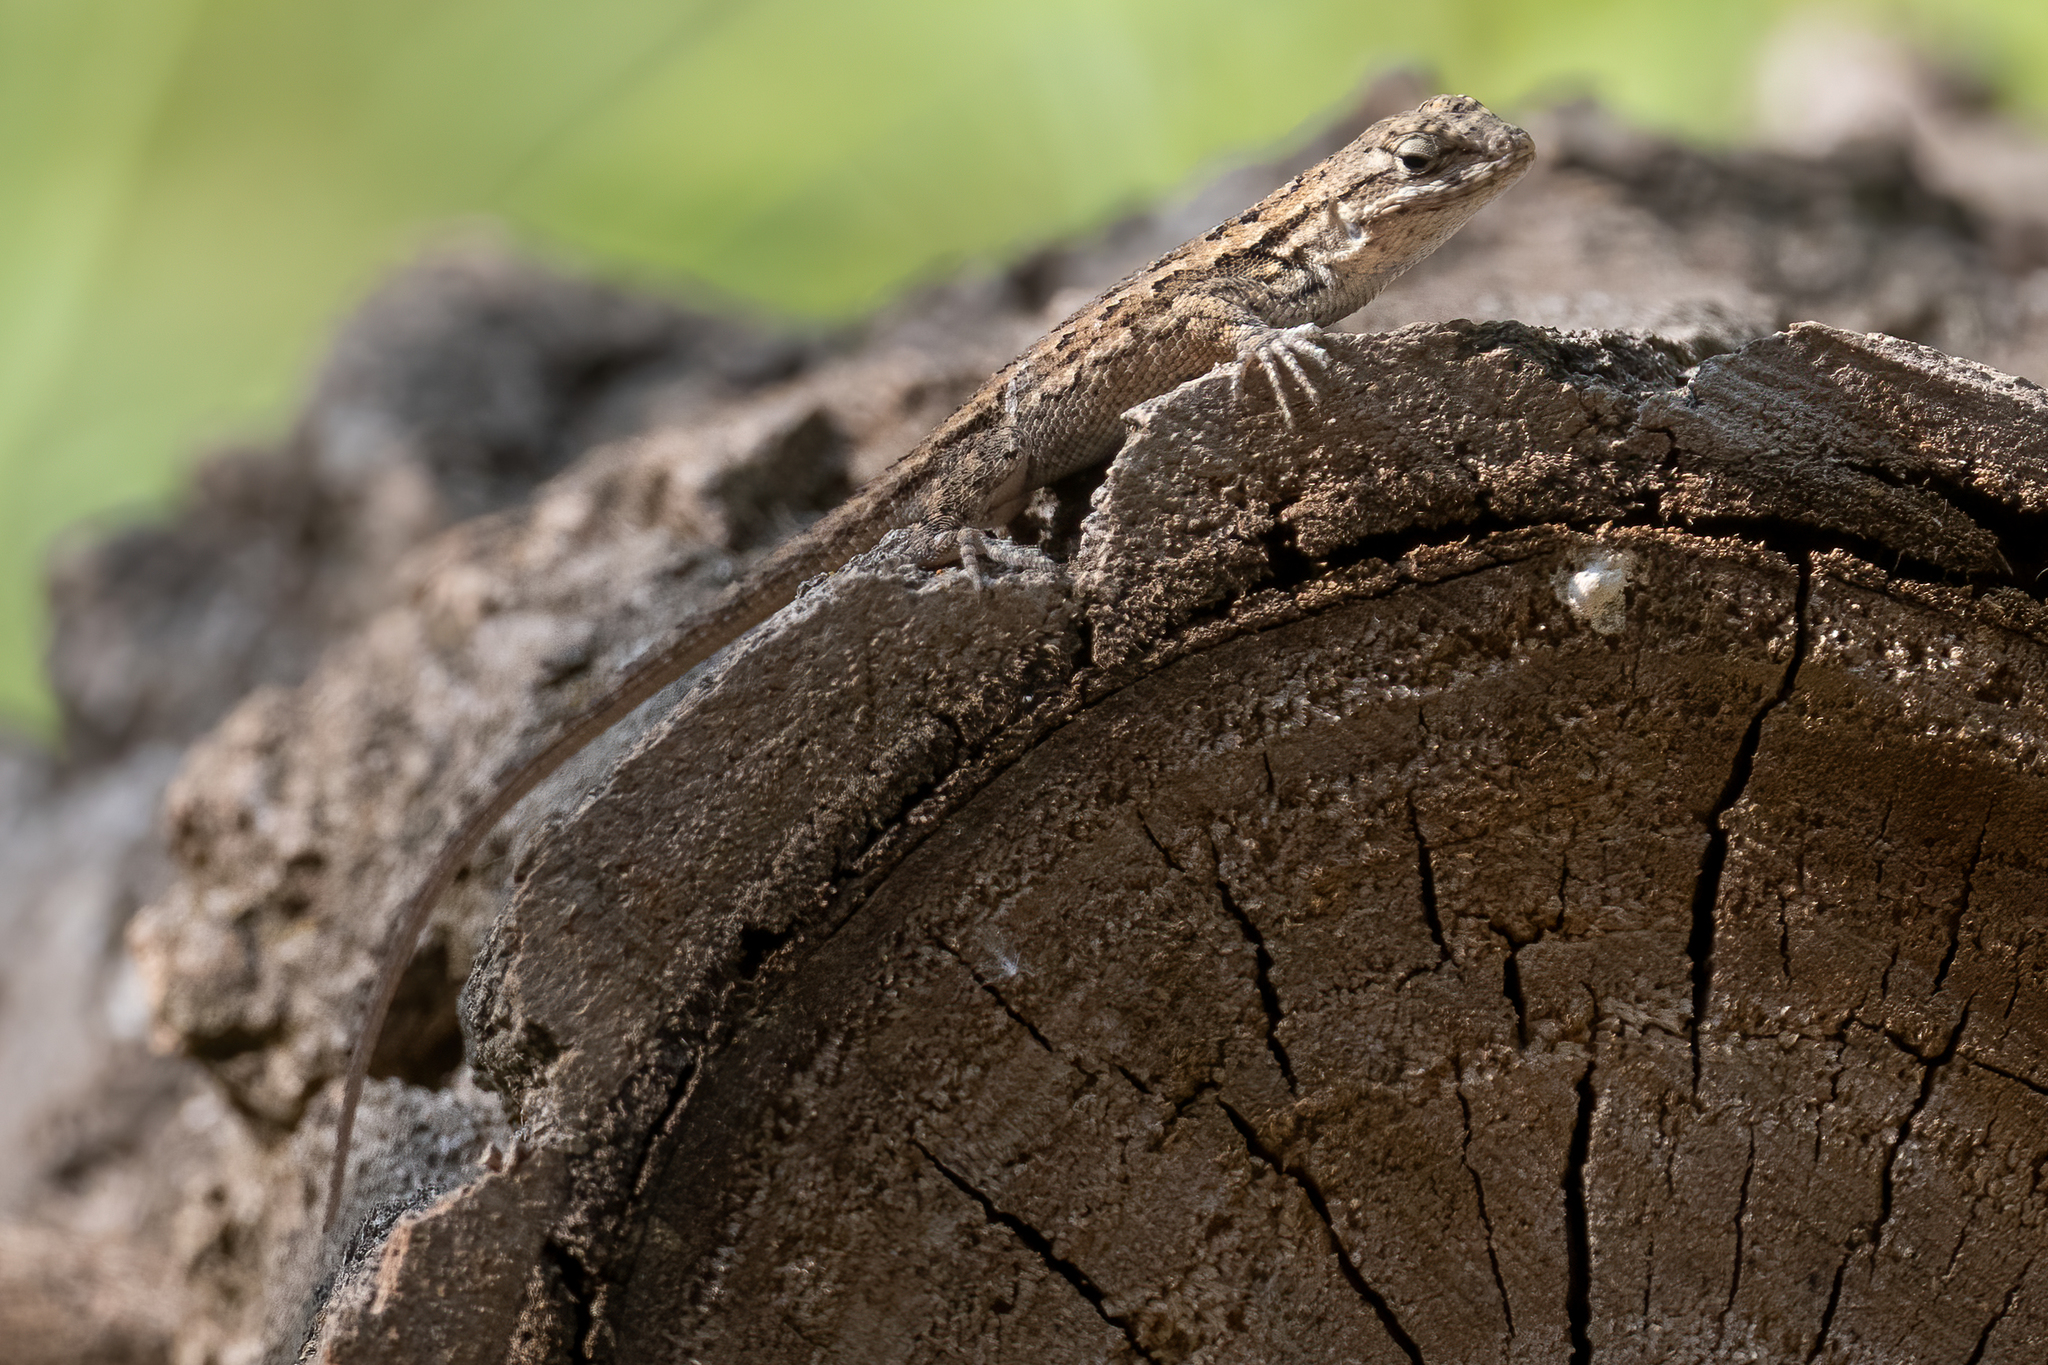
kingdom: Animalia
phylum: Chordata
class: Squamata
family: Phrynosomatidae
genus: Sceloporus
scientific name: Sceloporus occidentalis
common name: Western fence lizard
